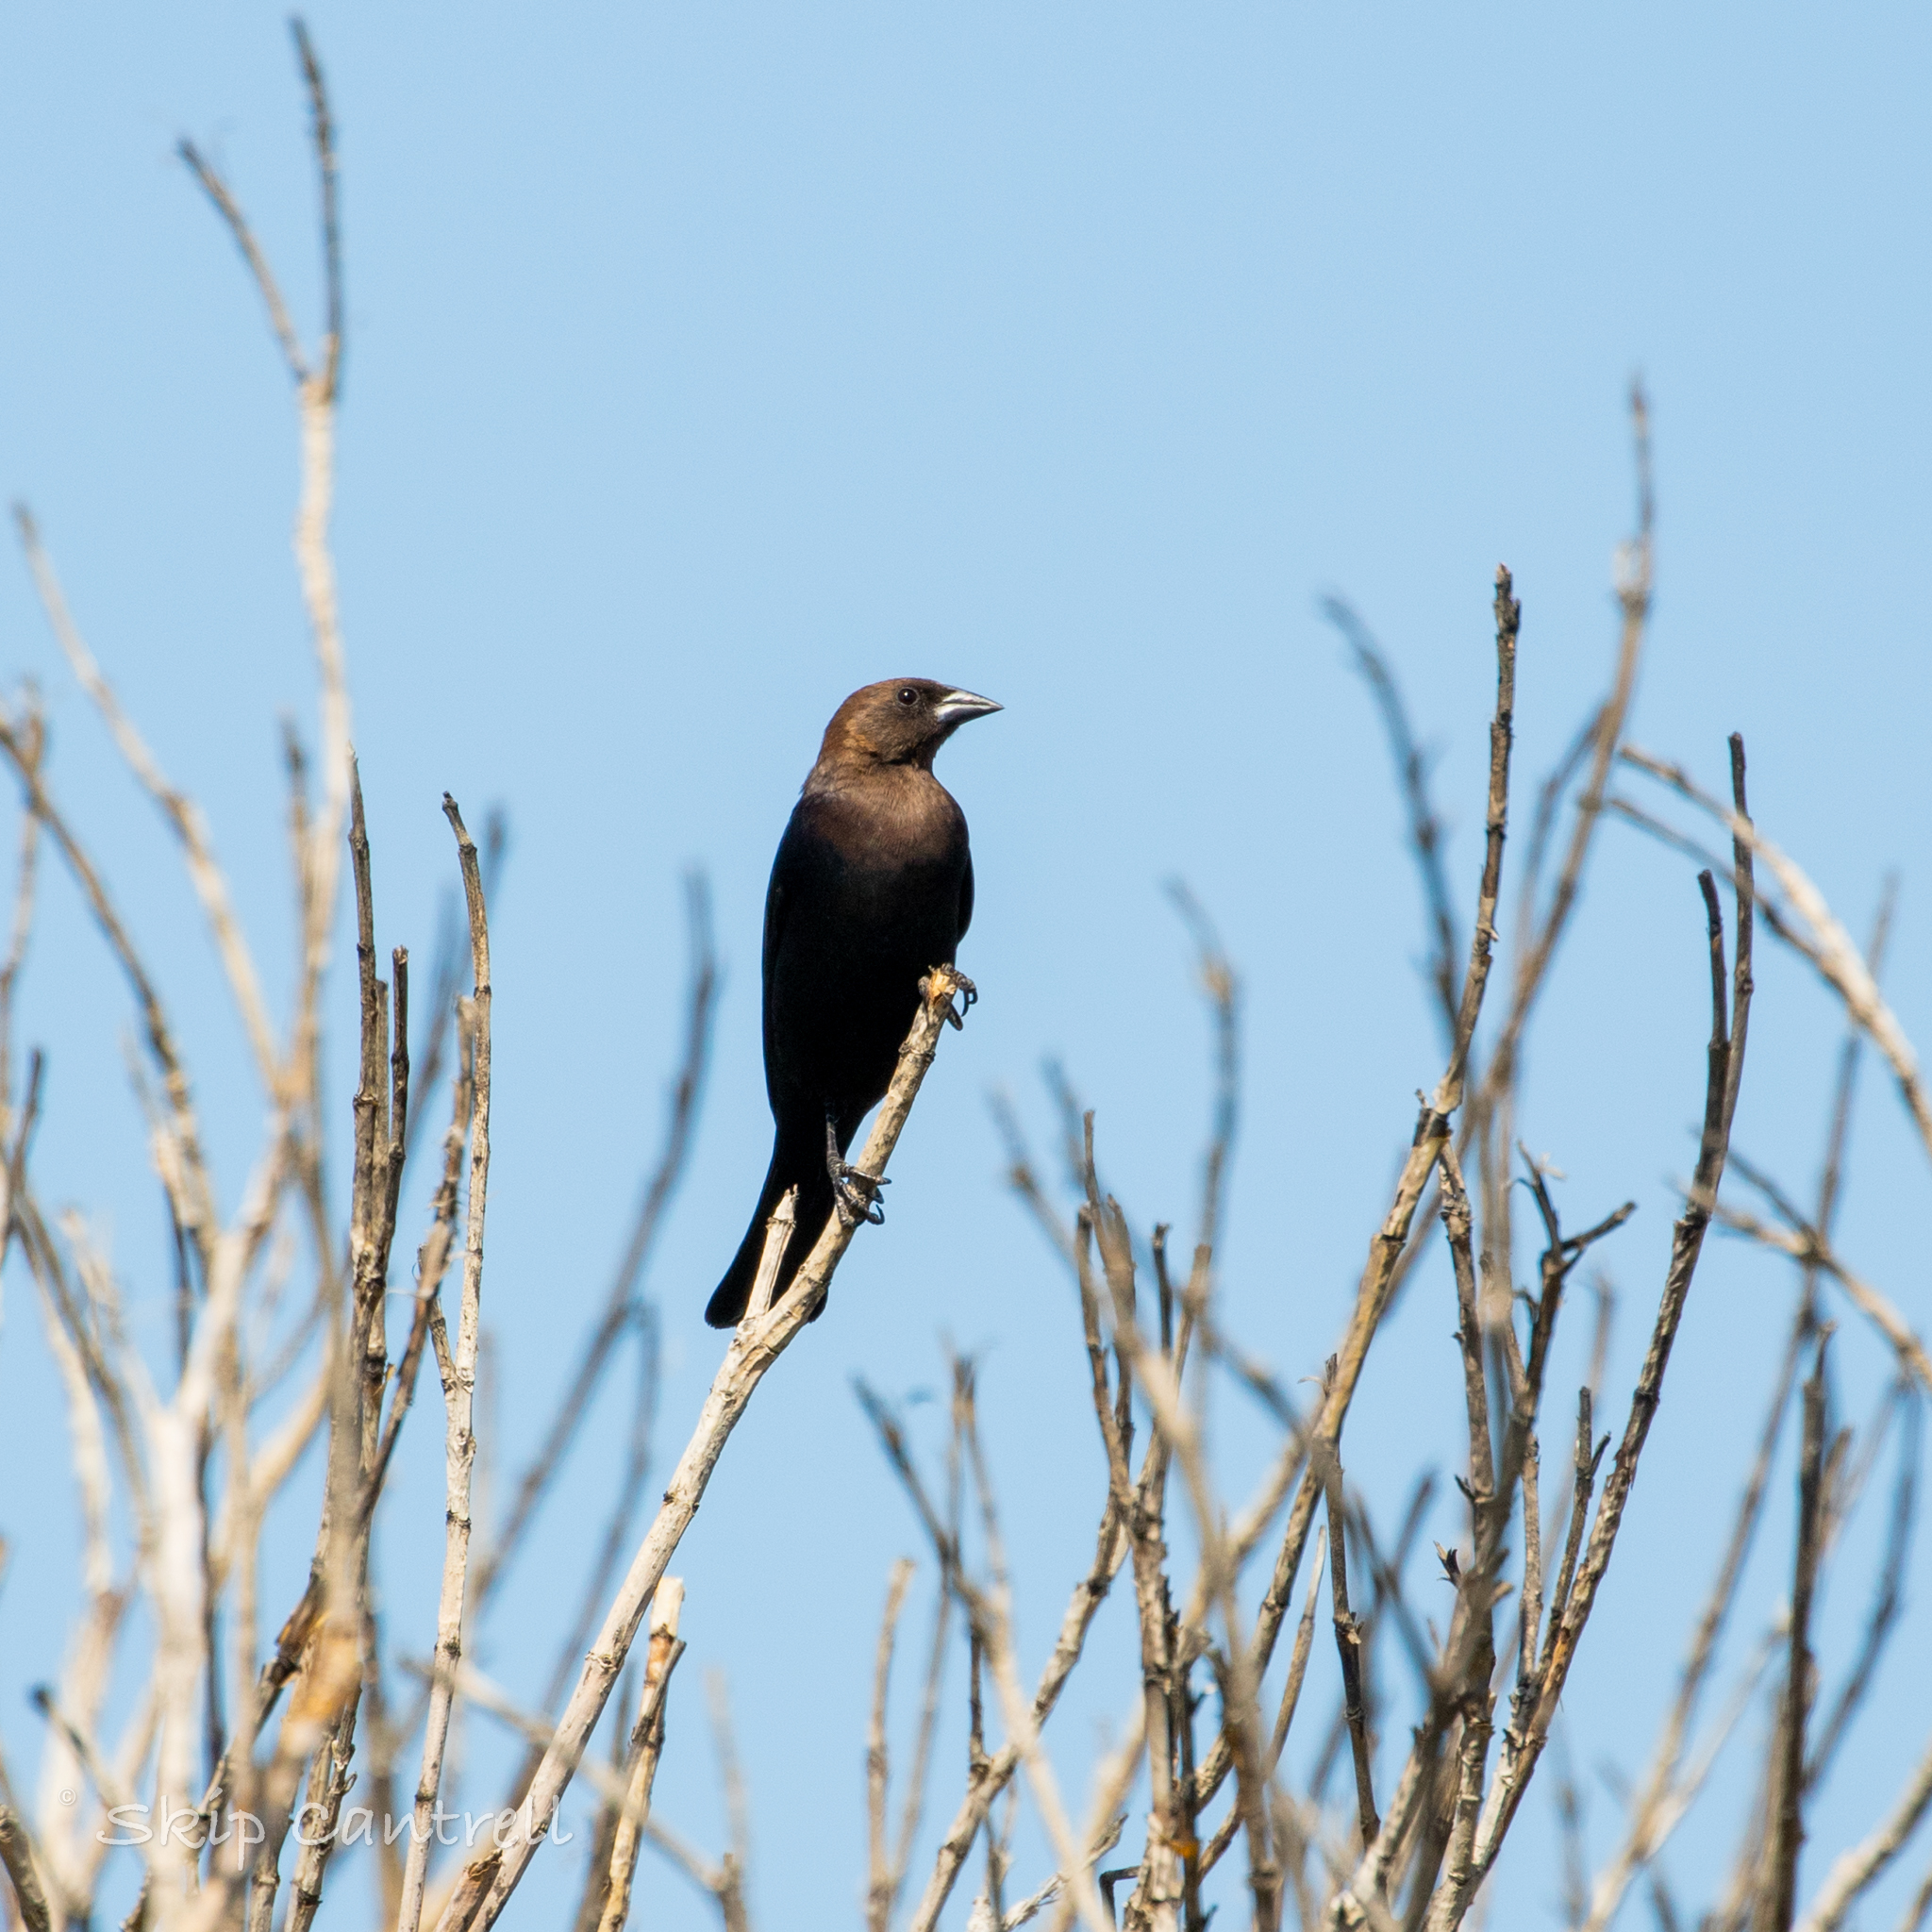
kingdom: Animalia
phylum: Chordata
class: Aves
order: Passeriformes
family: Icteridae
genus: Molothrus
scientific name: Molothrus ater
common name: Brown-headed cowbird
